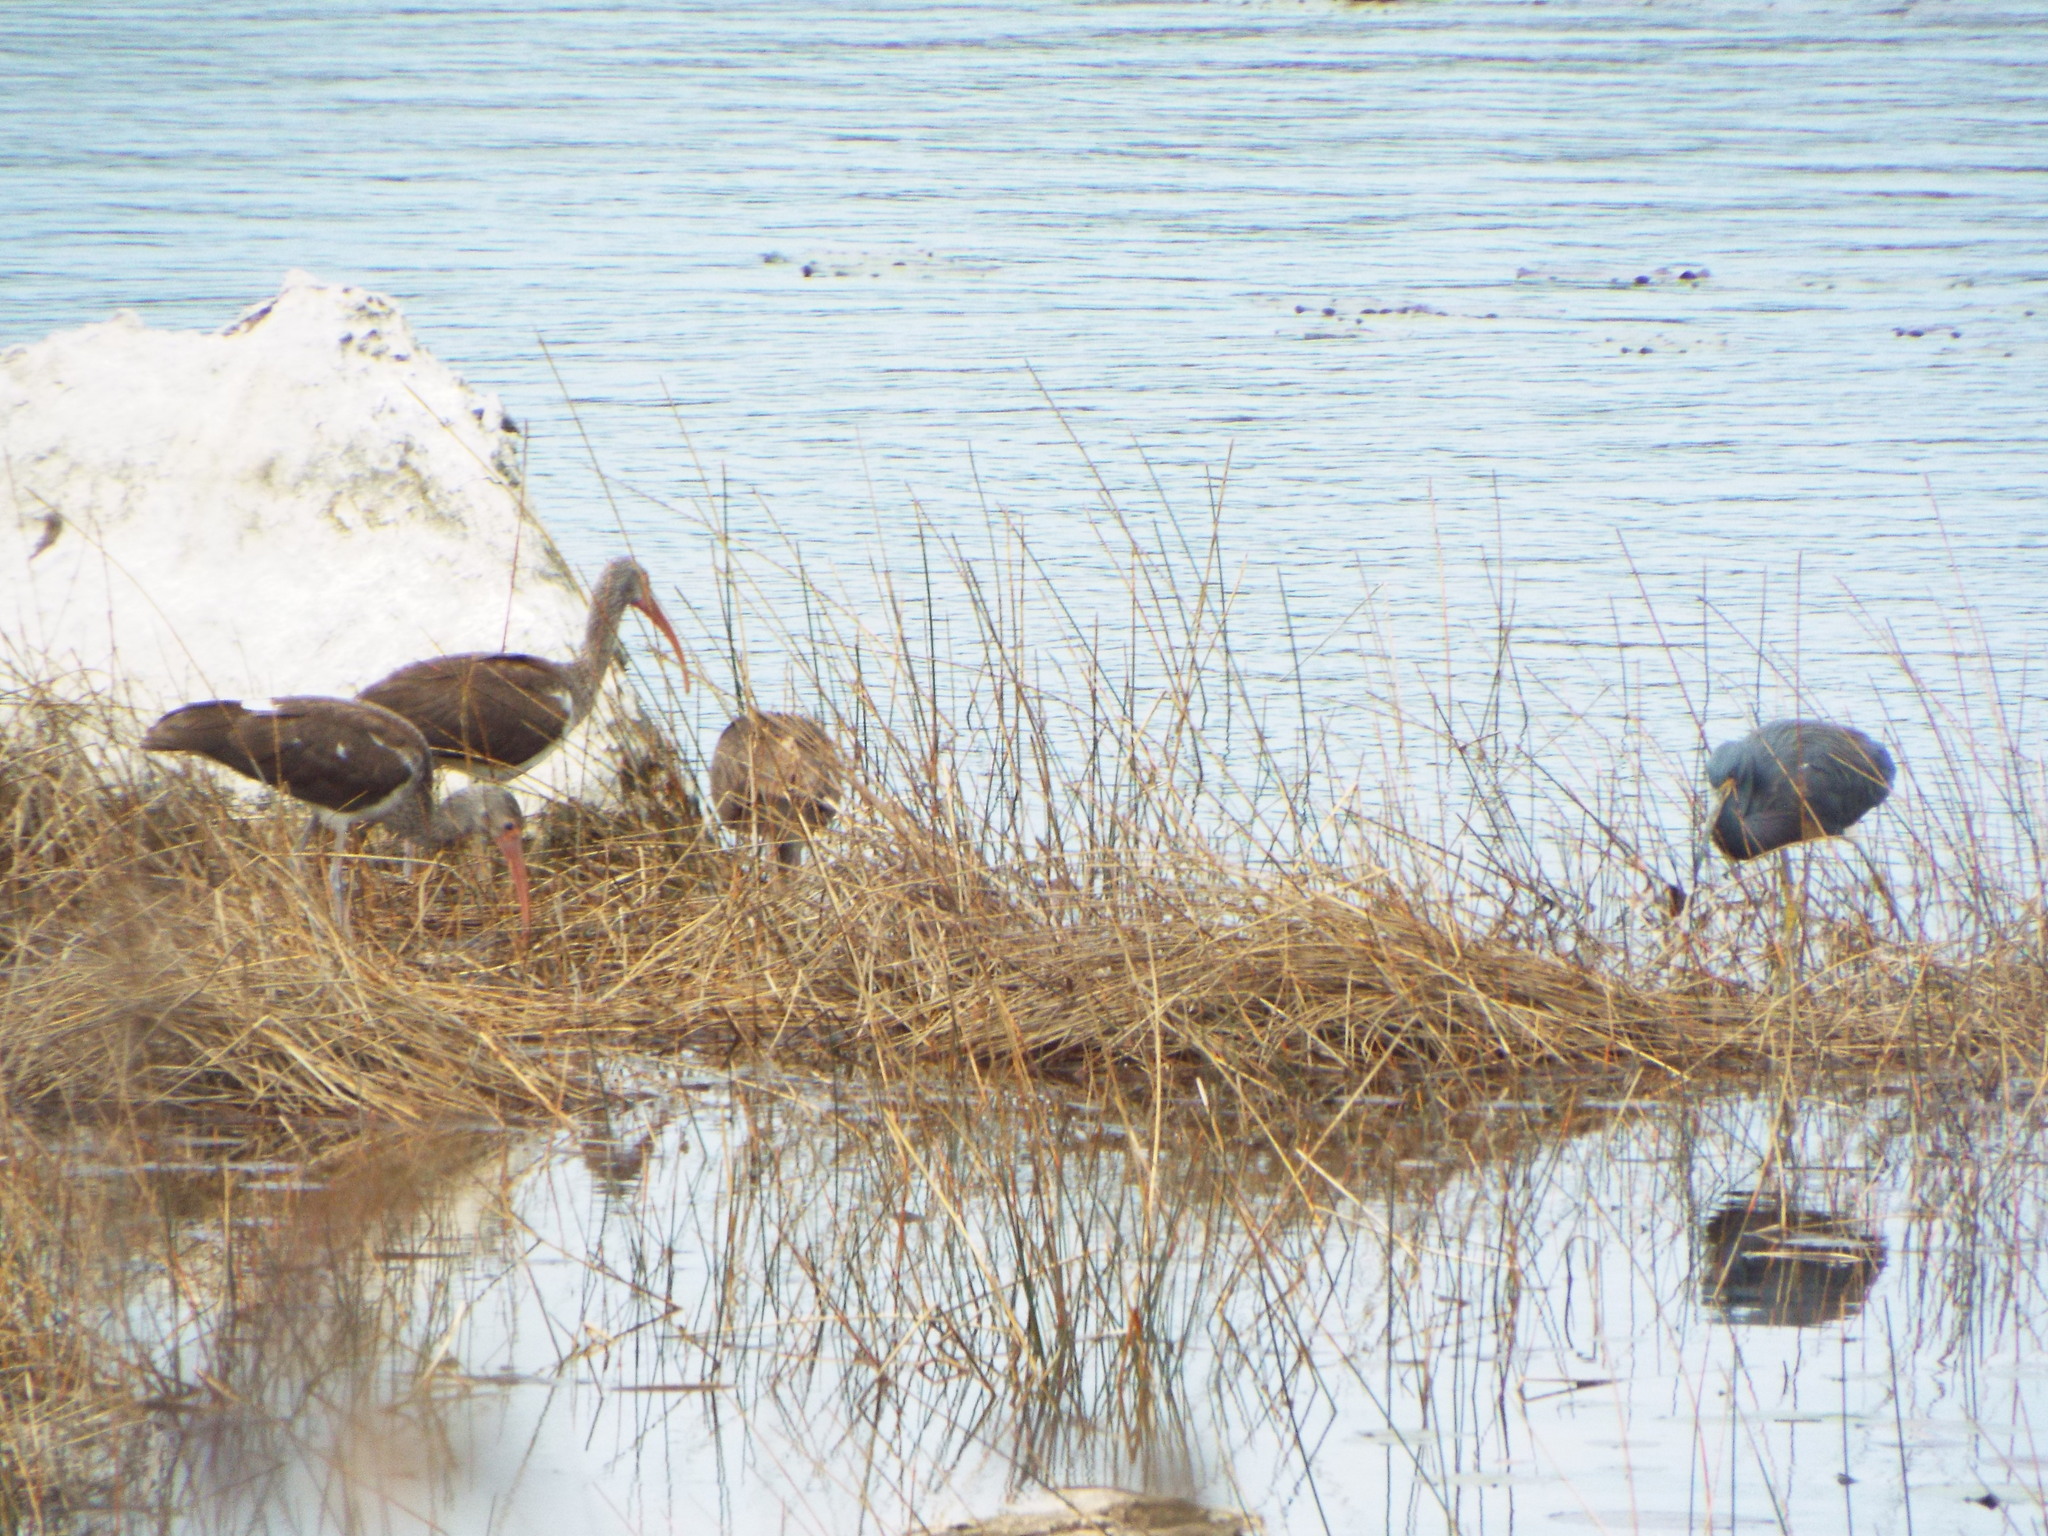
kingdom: Animalia
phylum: Chordata
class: Aves
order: Pelecaniformes
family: Threskiornithidae
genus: Eudocimus
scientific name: Eudocimus albus
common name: White ibis
